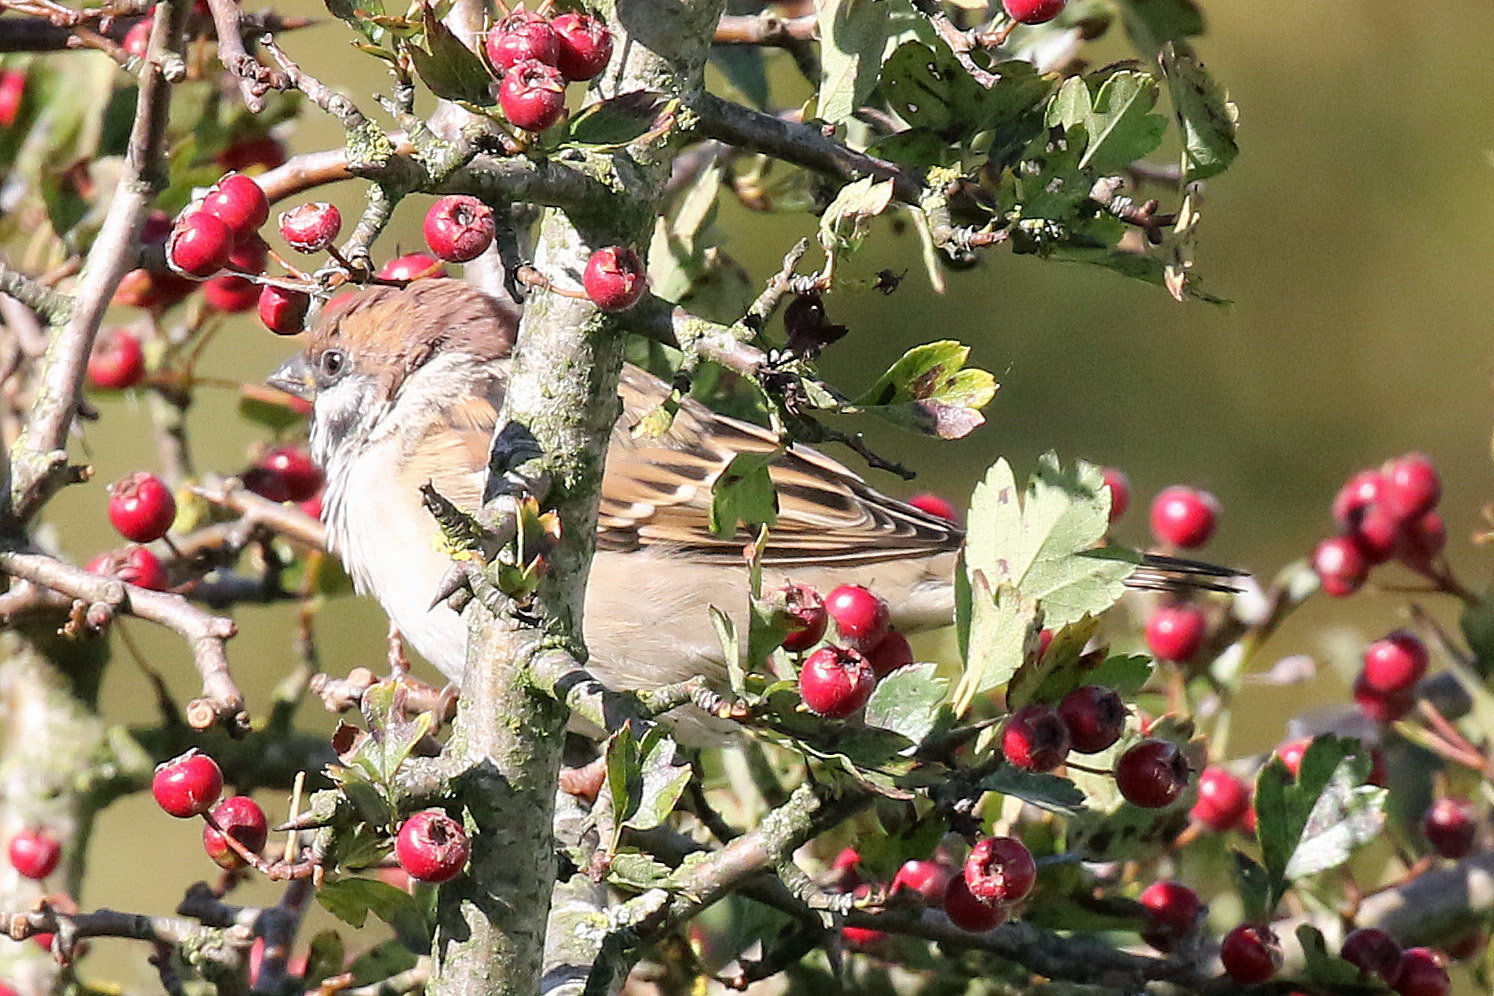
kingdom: Animalia
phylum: Chordata
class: Aves
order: Passeriformes
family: Passeridae
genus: Passer
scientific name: Passer montanus
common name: Eurasian tree sparrow
